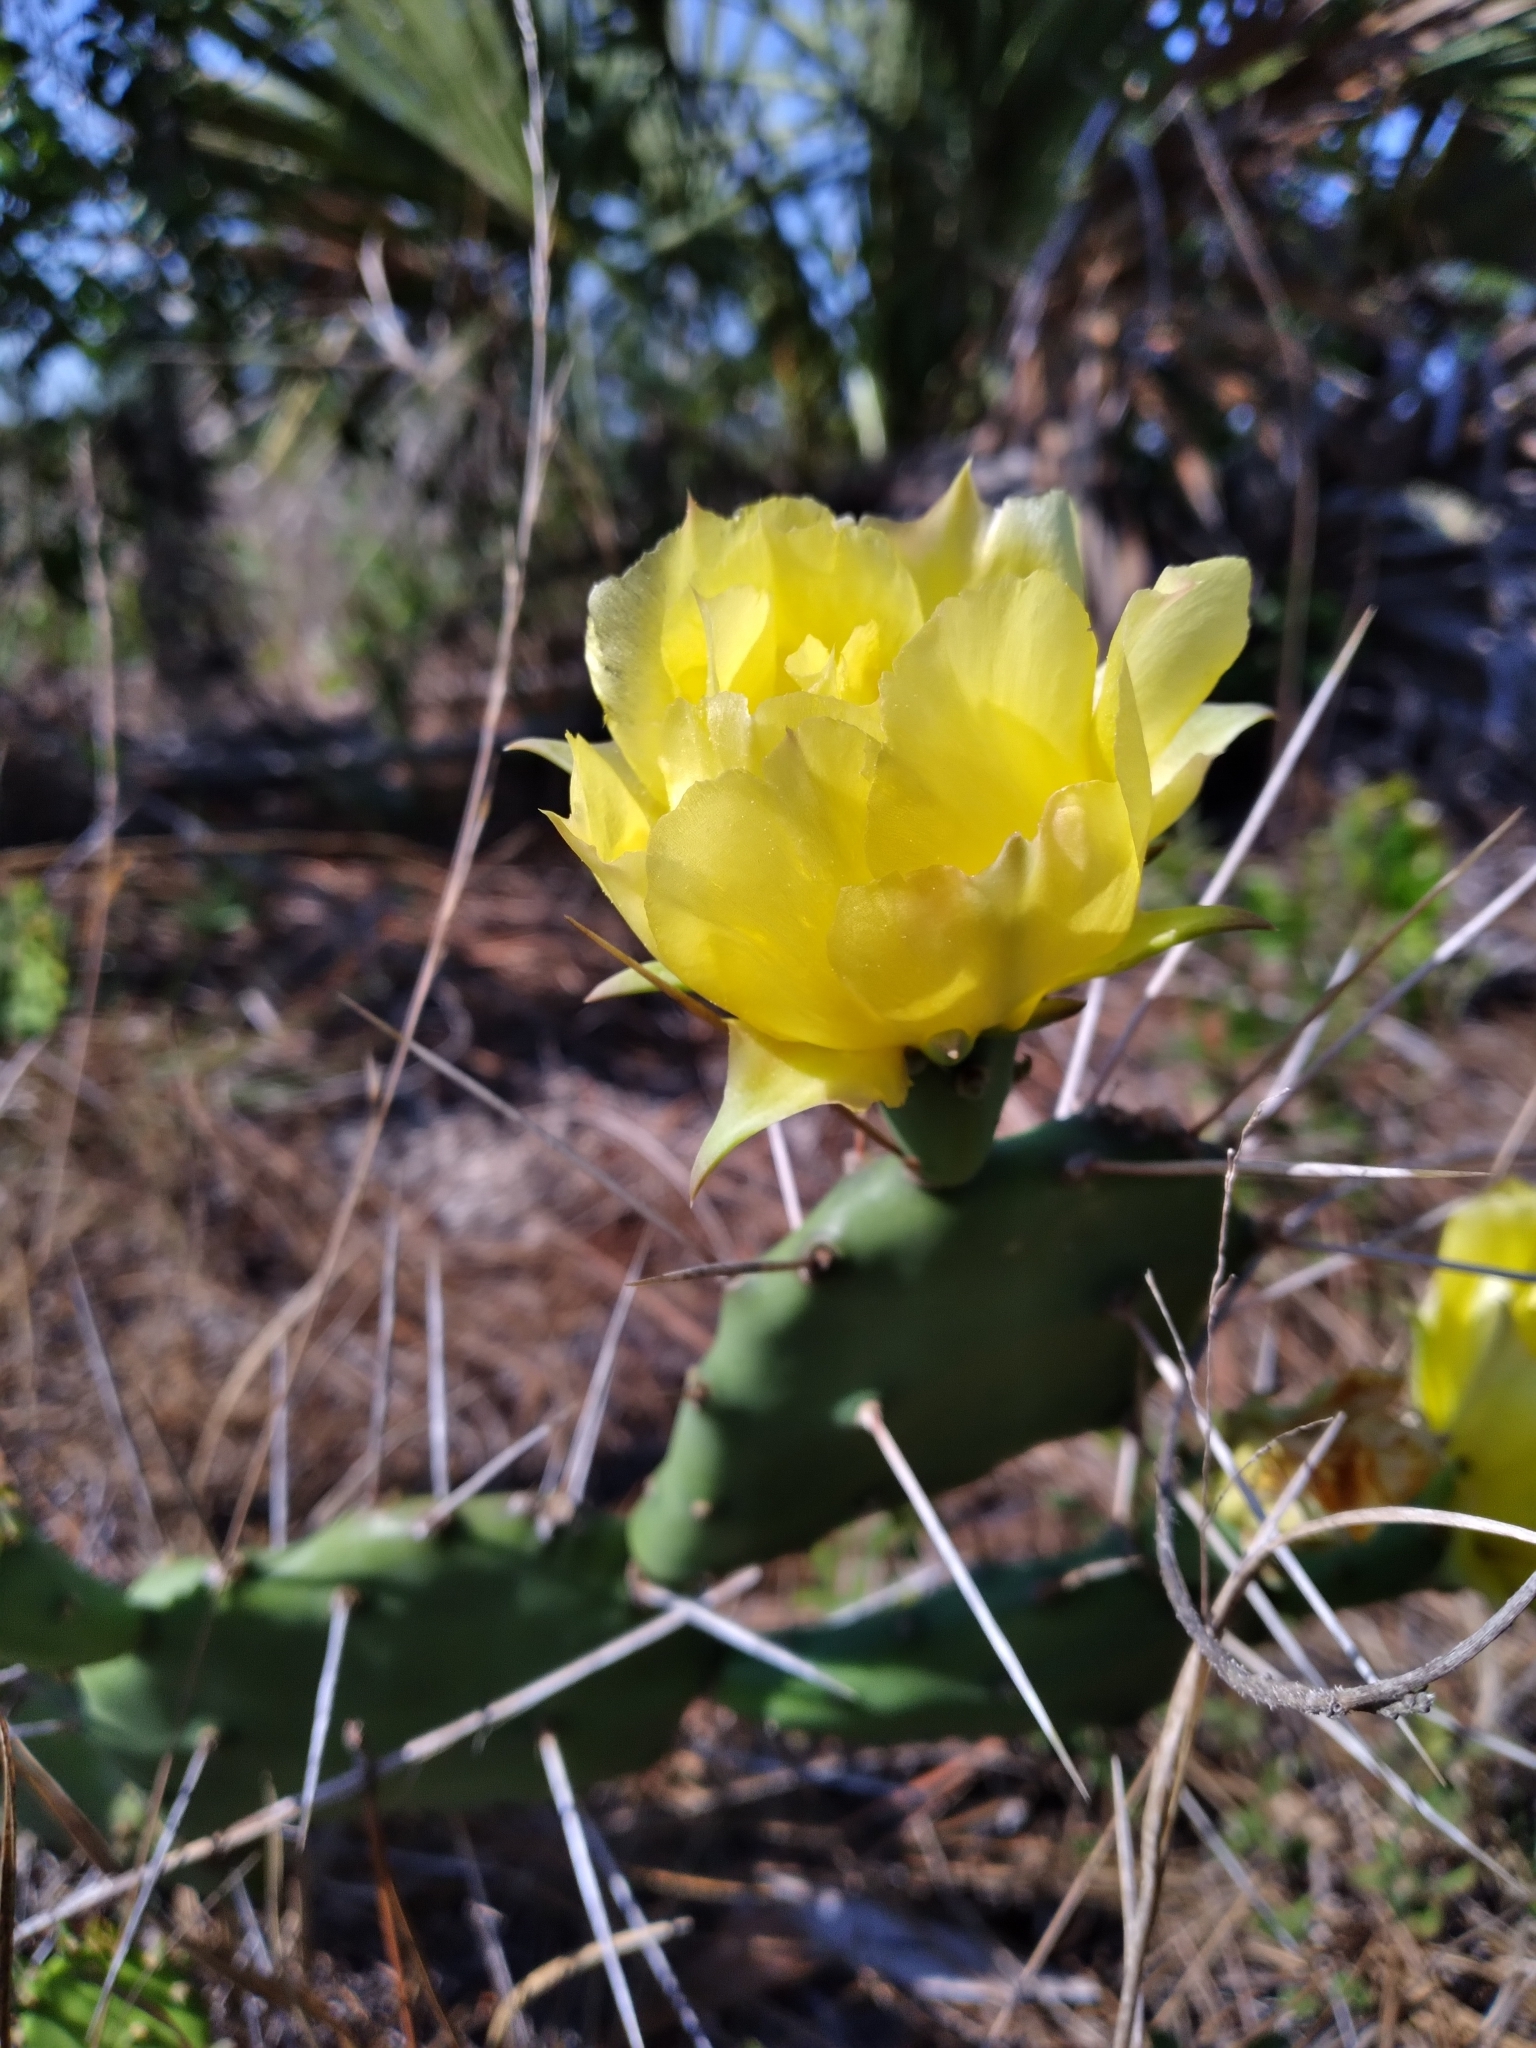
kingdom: Plantae
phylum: Tracheophyta
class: Magnoliopsida
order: Caryophyllales
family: Cactaceae
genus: Opuntia
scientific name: Opuntia austrina
